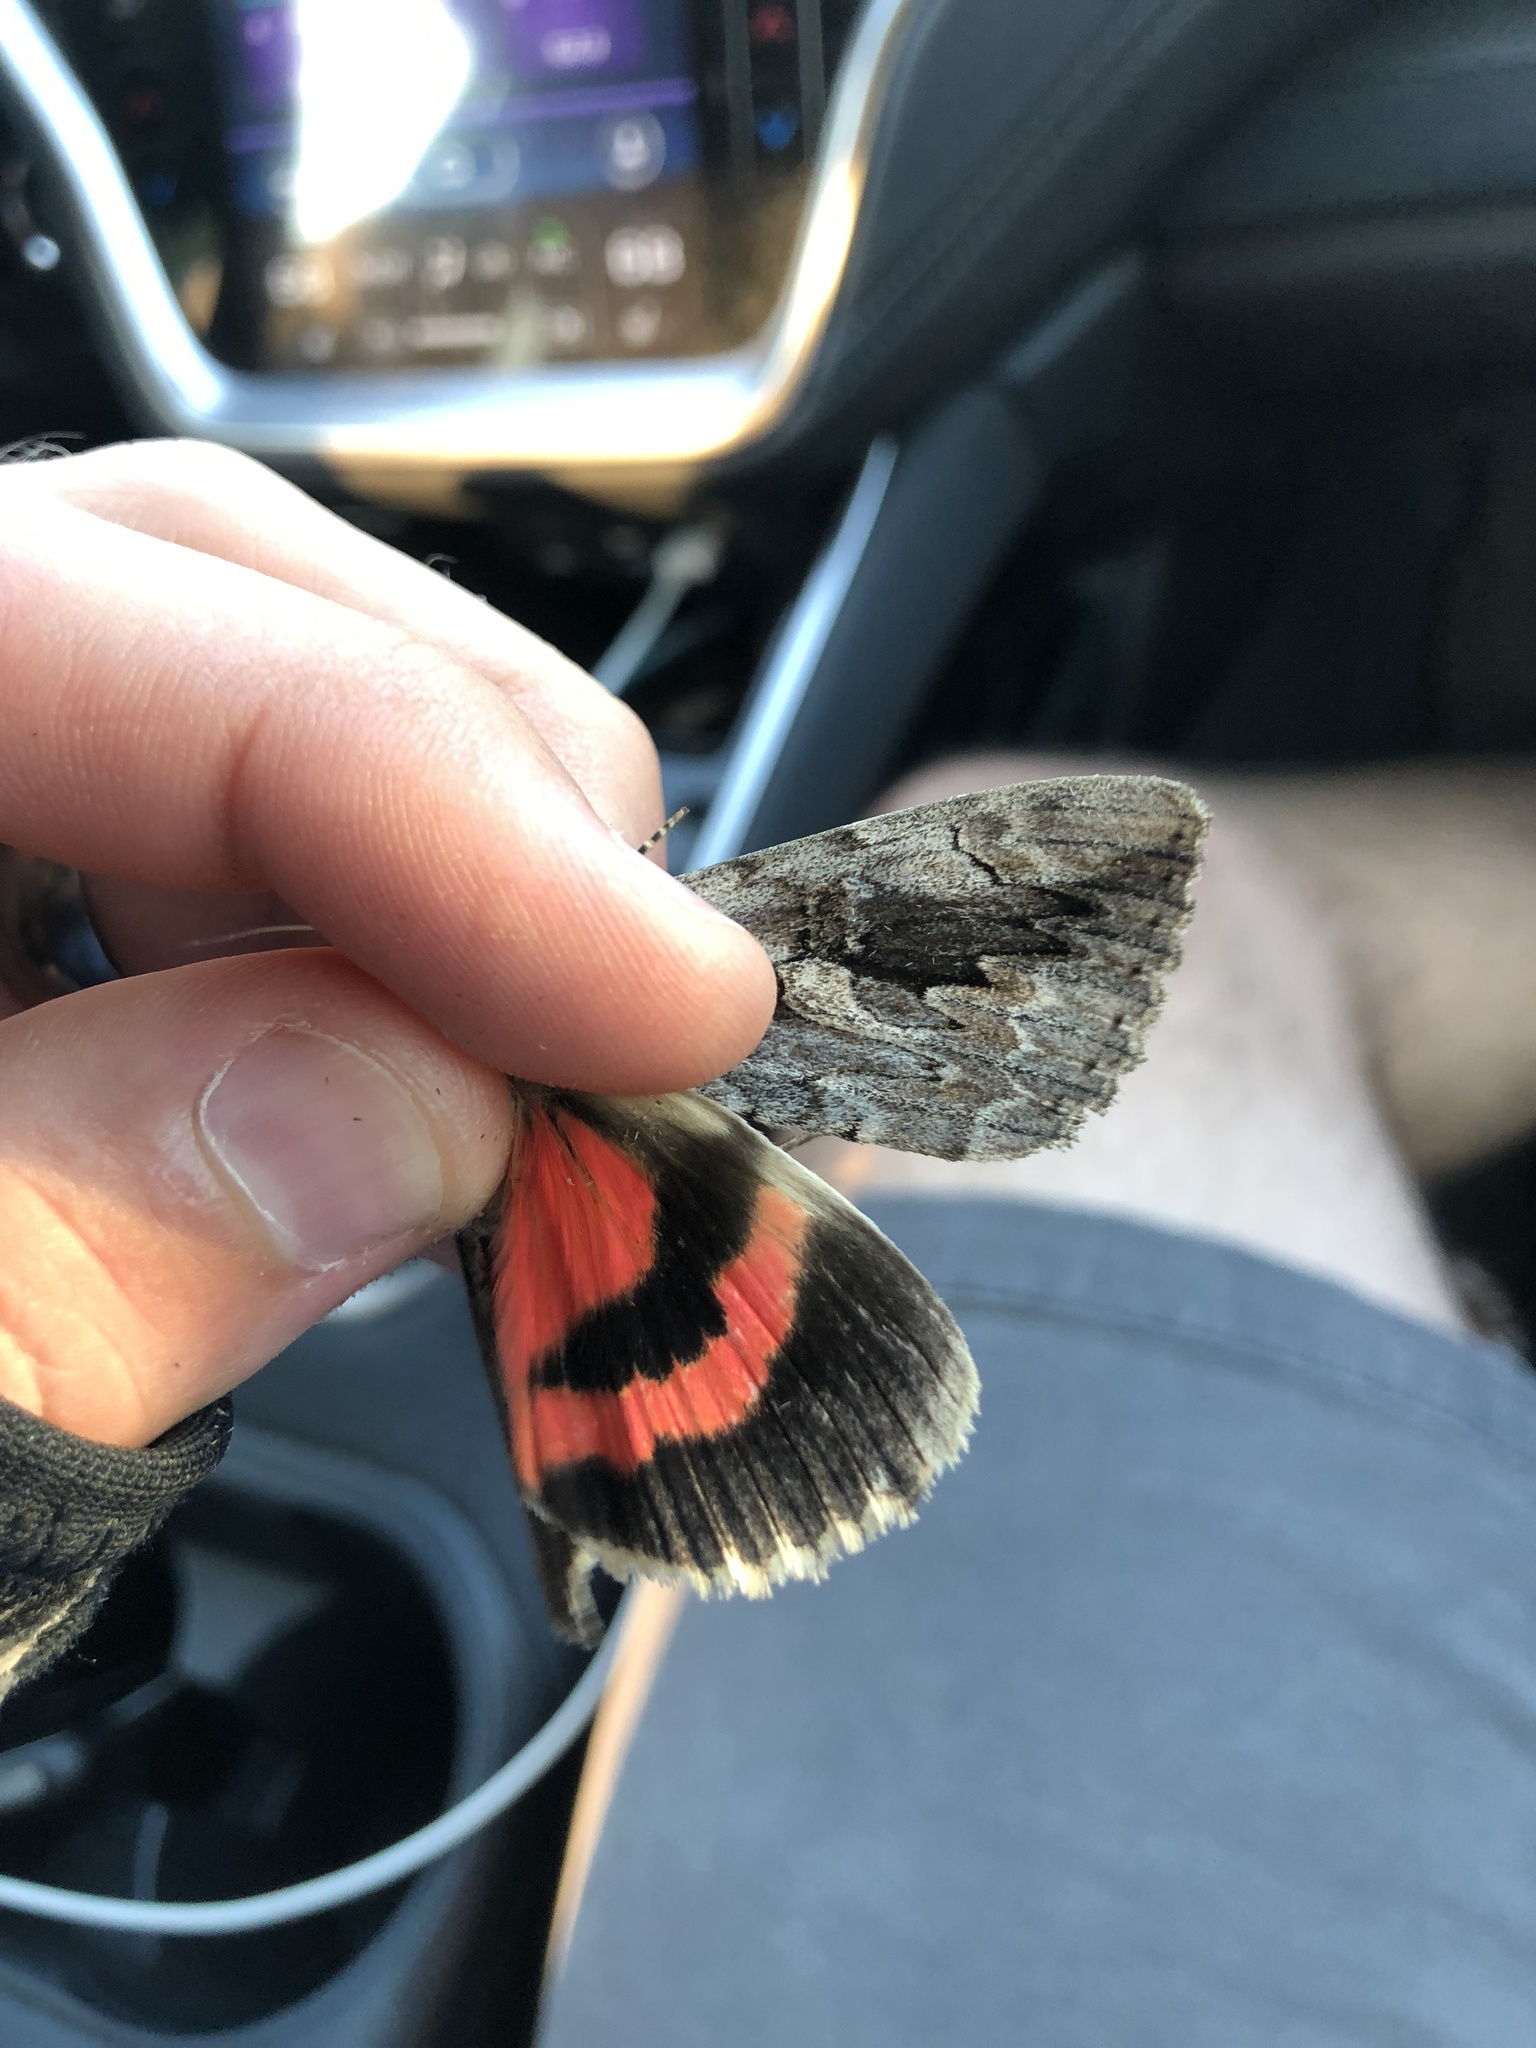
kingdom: Animalia
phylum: Arthropoda
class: Insecta
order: Lepidoptera
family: Erebidae
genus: Catocala
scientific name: Catocala amatrix
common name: Sweetheart underwing
